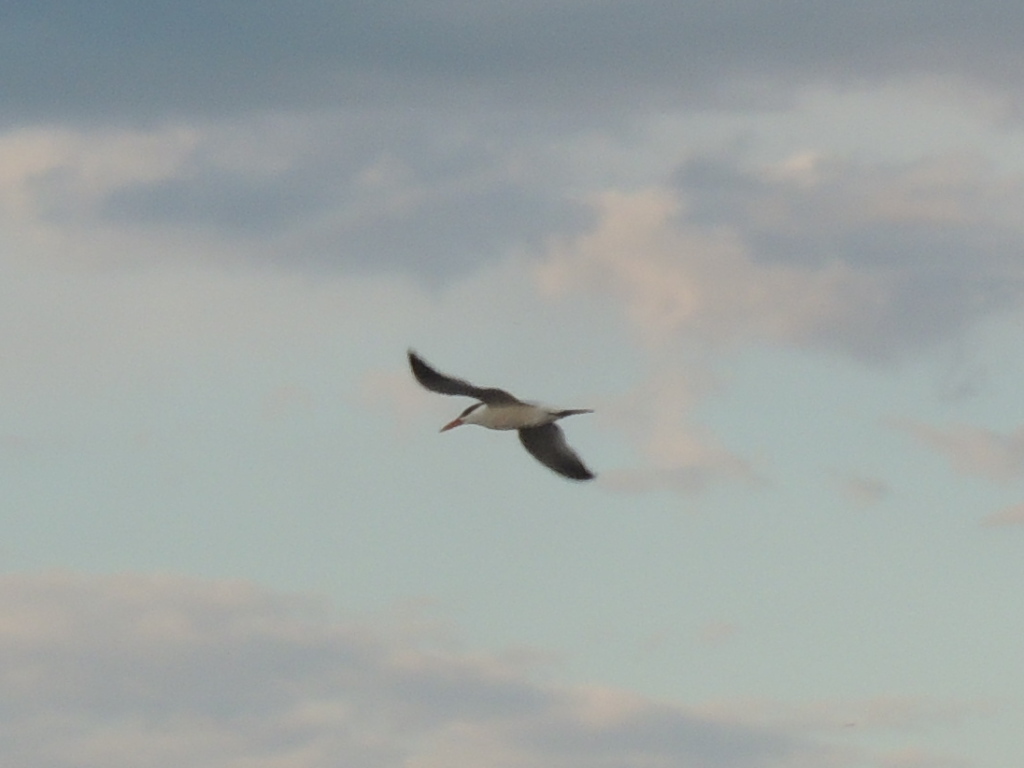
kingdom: Animalia
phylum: Chordata
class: Aves
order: Charadriiformes
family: Laridae
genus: Hydroprogne
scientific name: Hydroprogne caspia
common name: Caspian tern
